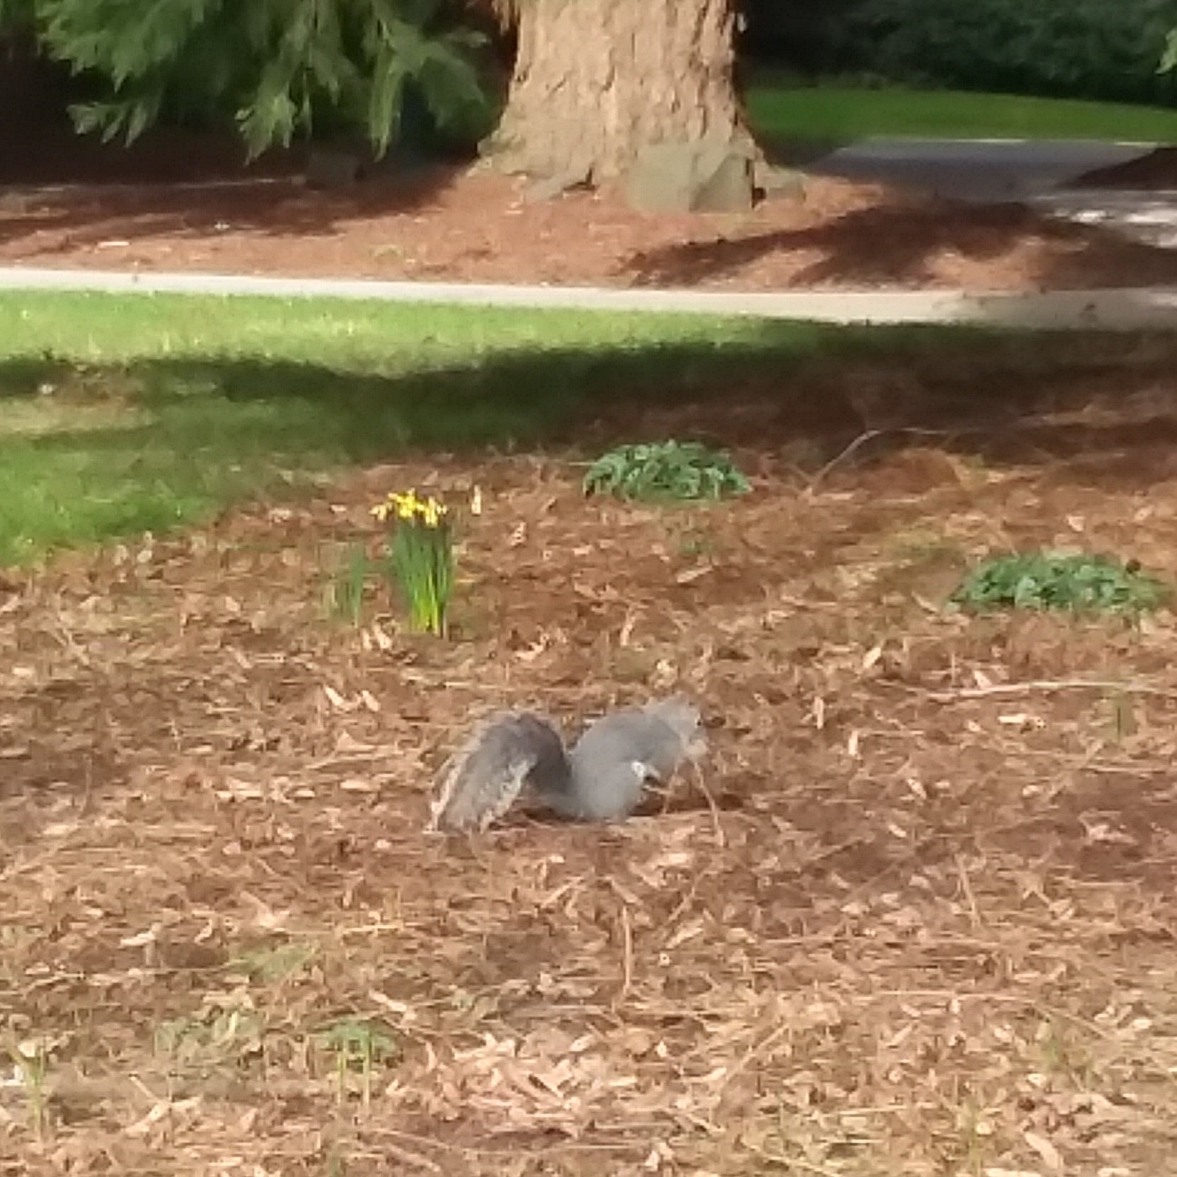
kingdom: Animalia
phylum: Chordata
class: Mammalia
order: Rodentia
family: Sciuridae
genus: Sciurus
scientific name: Sciurus griseus
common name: Western gray squirrel
